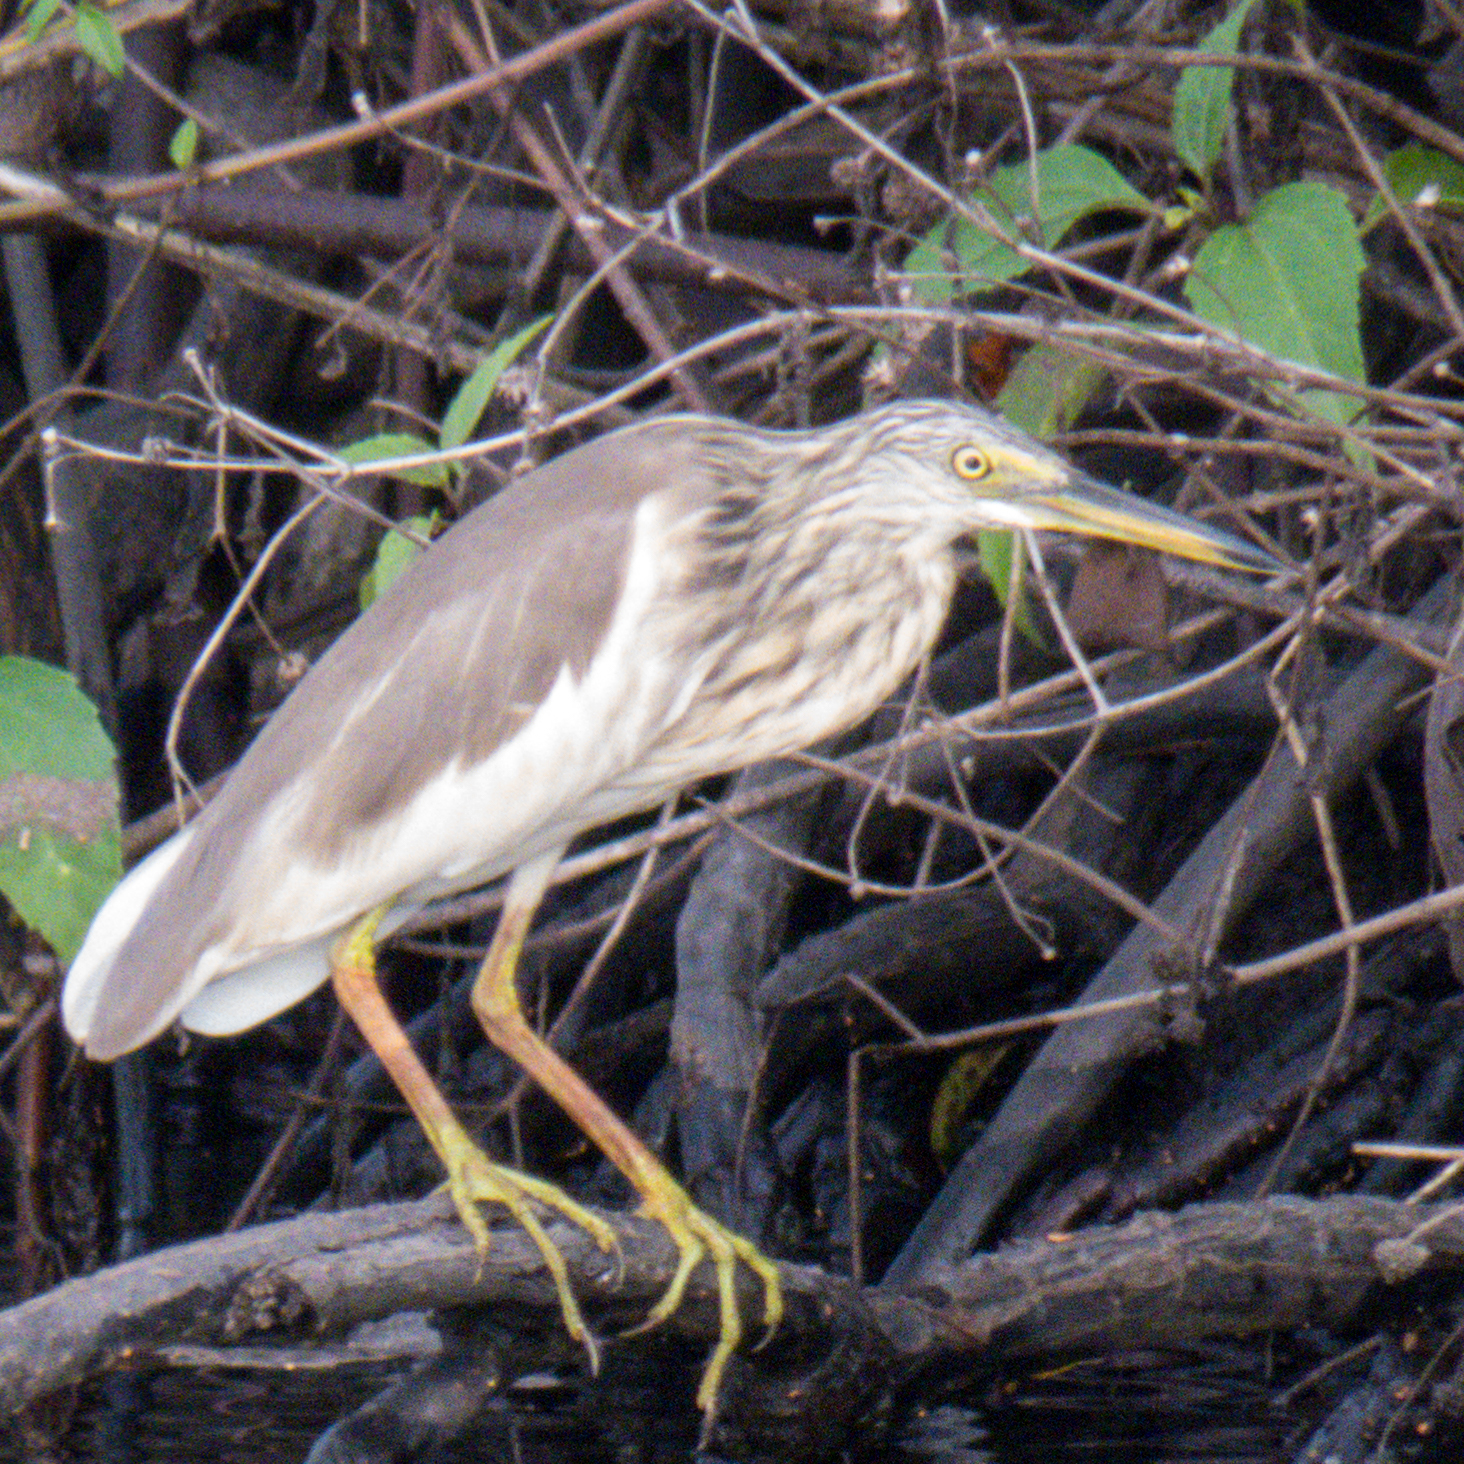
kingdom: Animalia
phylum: Chordata
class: Aves
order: Pelecaniformes
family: Ardeidae
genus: Ardeola
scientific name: Ardeola
